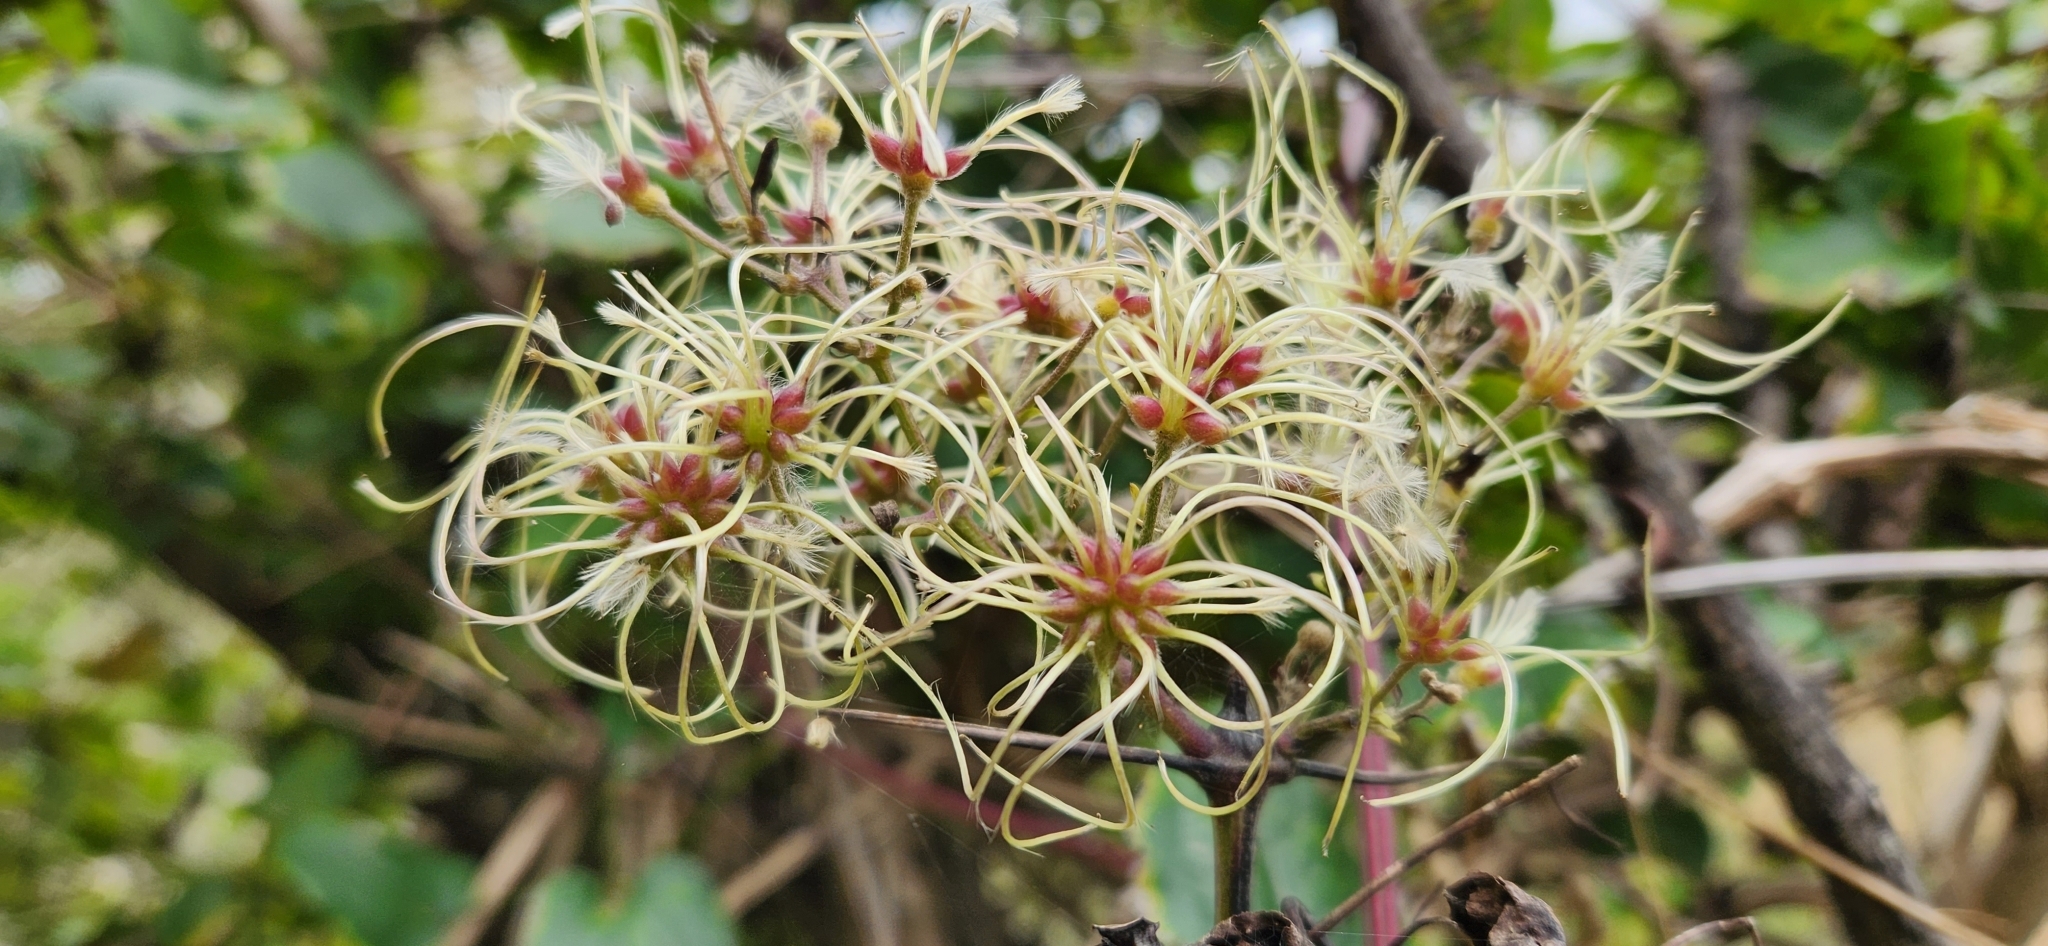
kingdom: Plantae
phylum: Tracheophyta
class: Magnoliopsida
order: Ranunculales
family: Ranunculaceae
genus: Clematis
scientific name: Clematis vitalba
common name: Evergreen clematis
